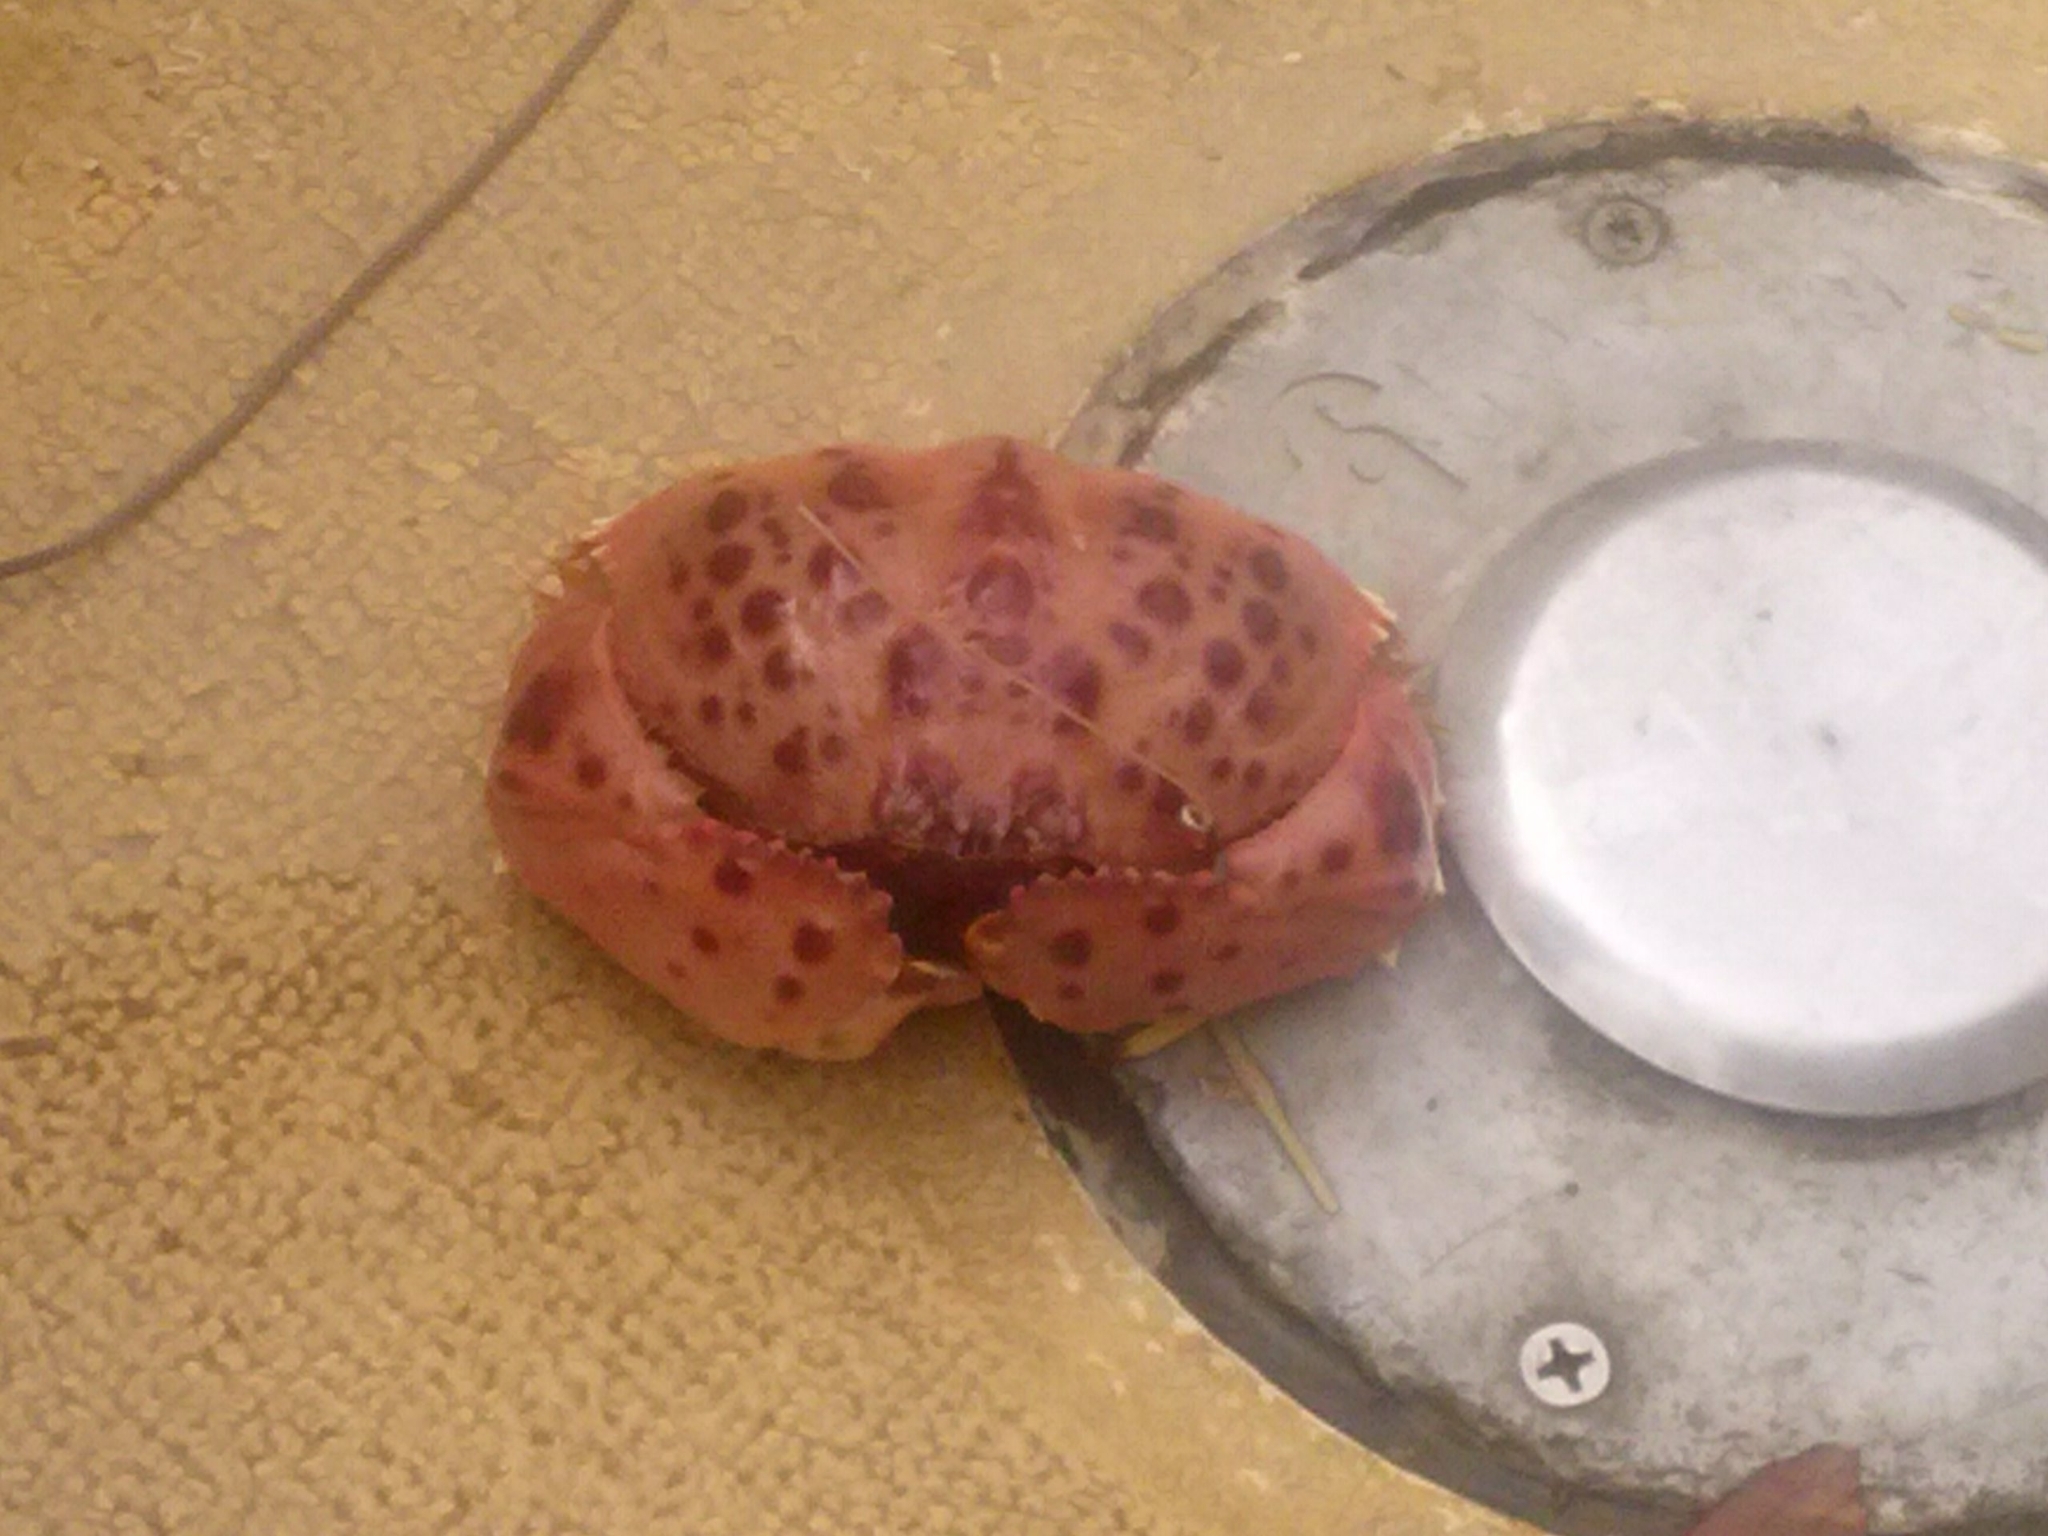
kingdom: Animalia
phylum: Arthropoda
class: Malacostraca
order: Decapoda
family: Calappidae
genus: Calappa
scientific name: Calappa granulata
